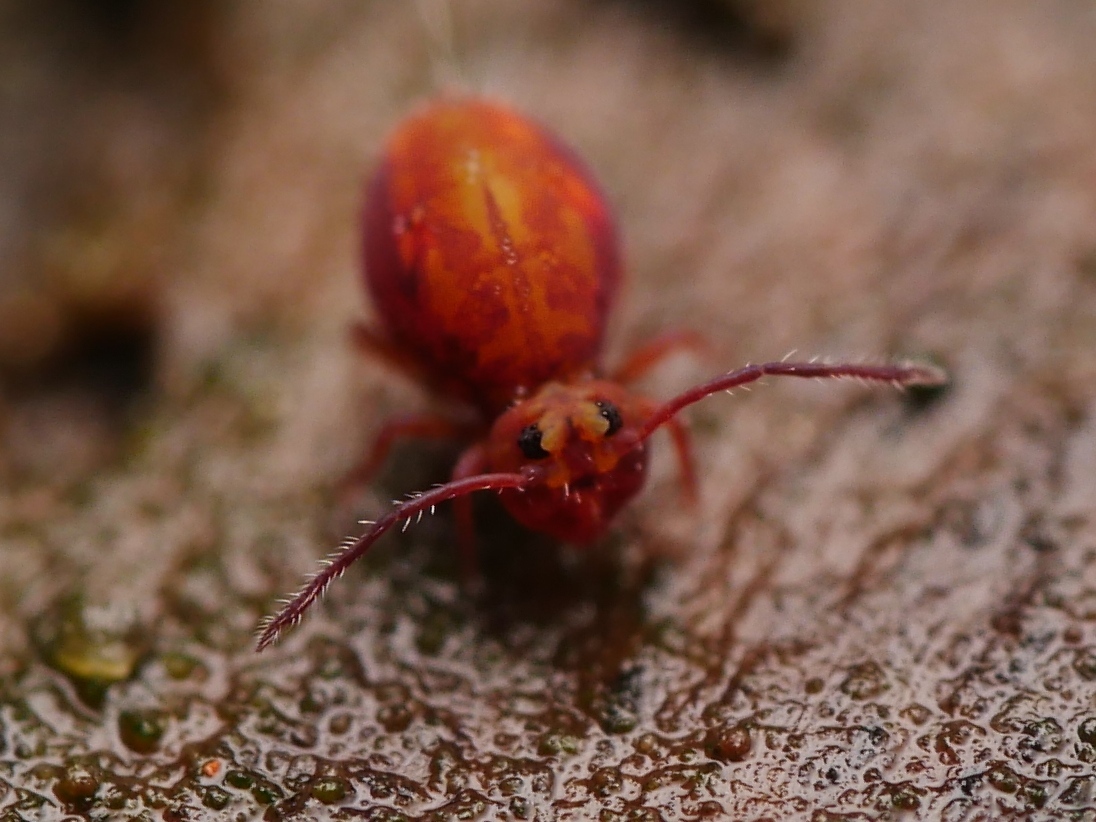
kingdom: Animalia
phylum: Arthropoda
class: Collembola
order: Symphypleona
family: Dicyrtomidae
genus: Dicyrtoma
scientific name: Dicyrtoma fusca
